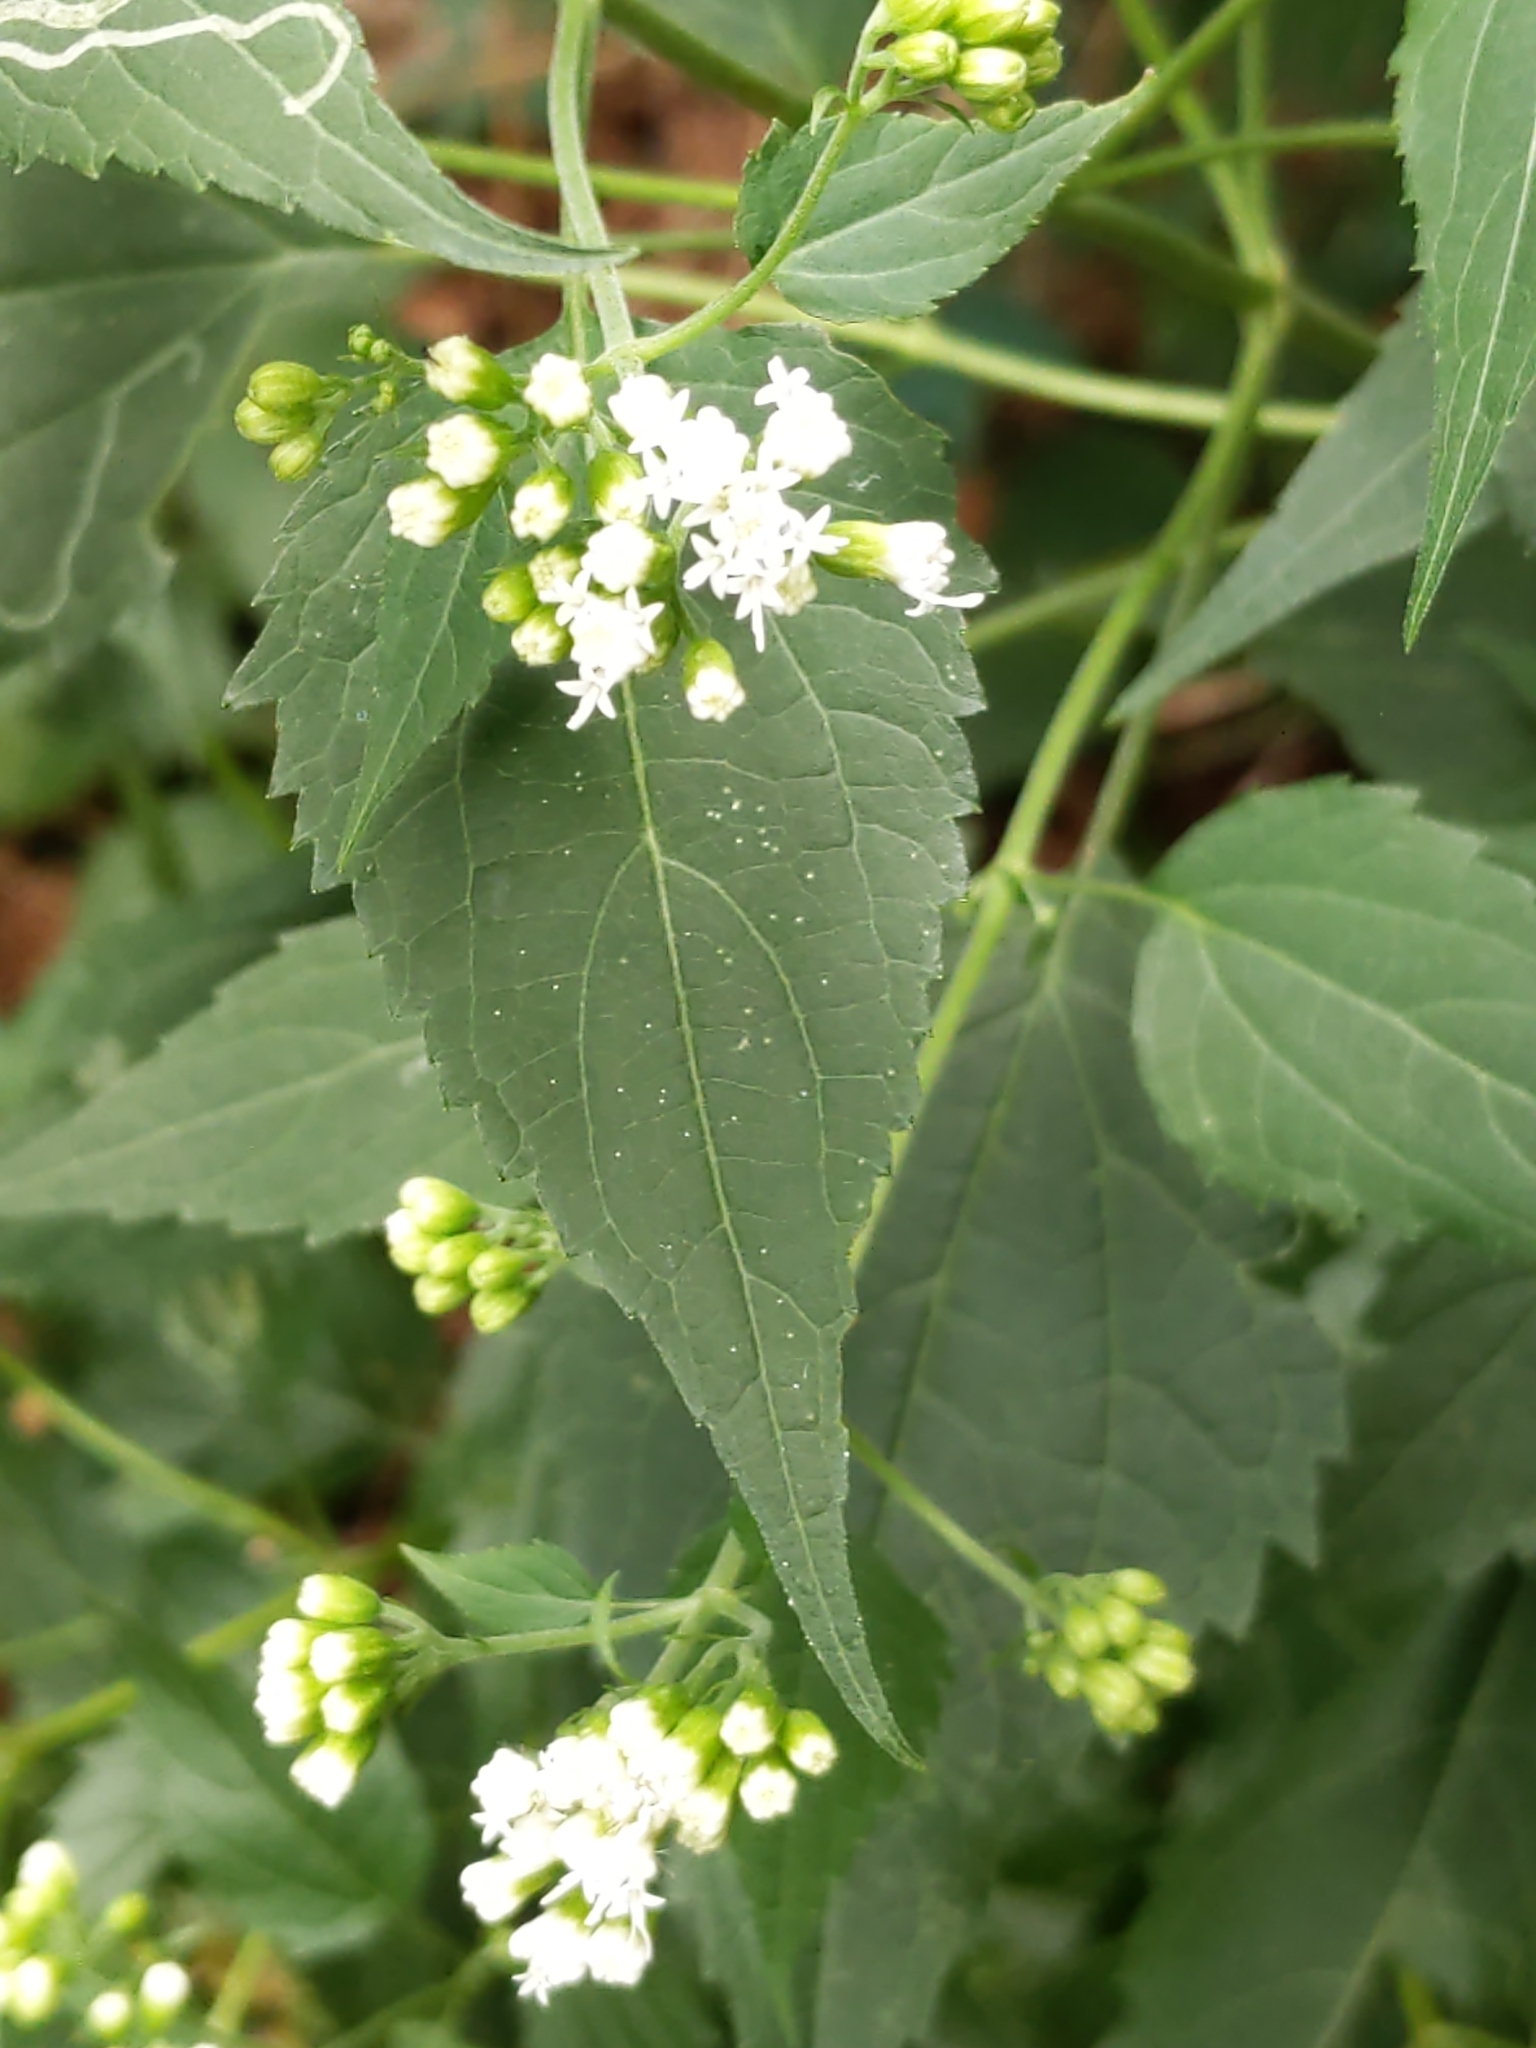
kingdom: Plantae
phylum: Tracheophyta
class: Magnoliopsida
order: Asterales
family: Asteraceae
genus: Ageratina
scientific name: Ageratina altissima
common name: White snakeroot
